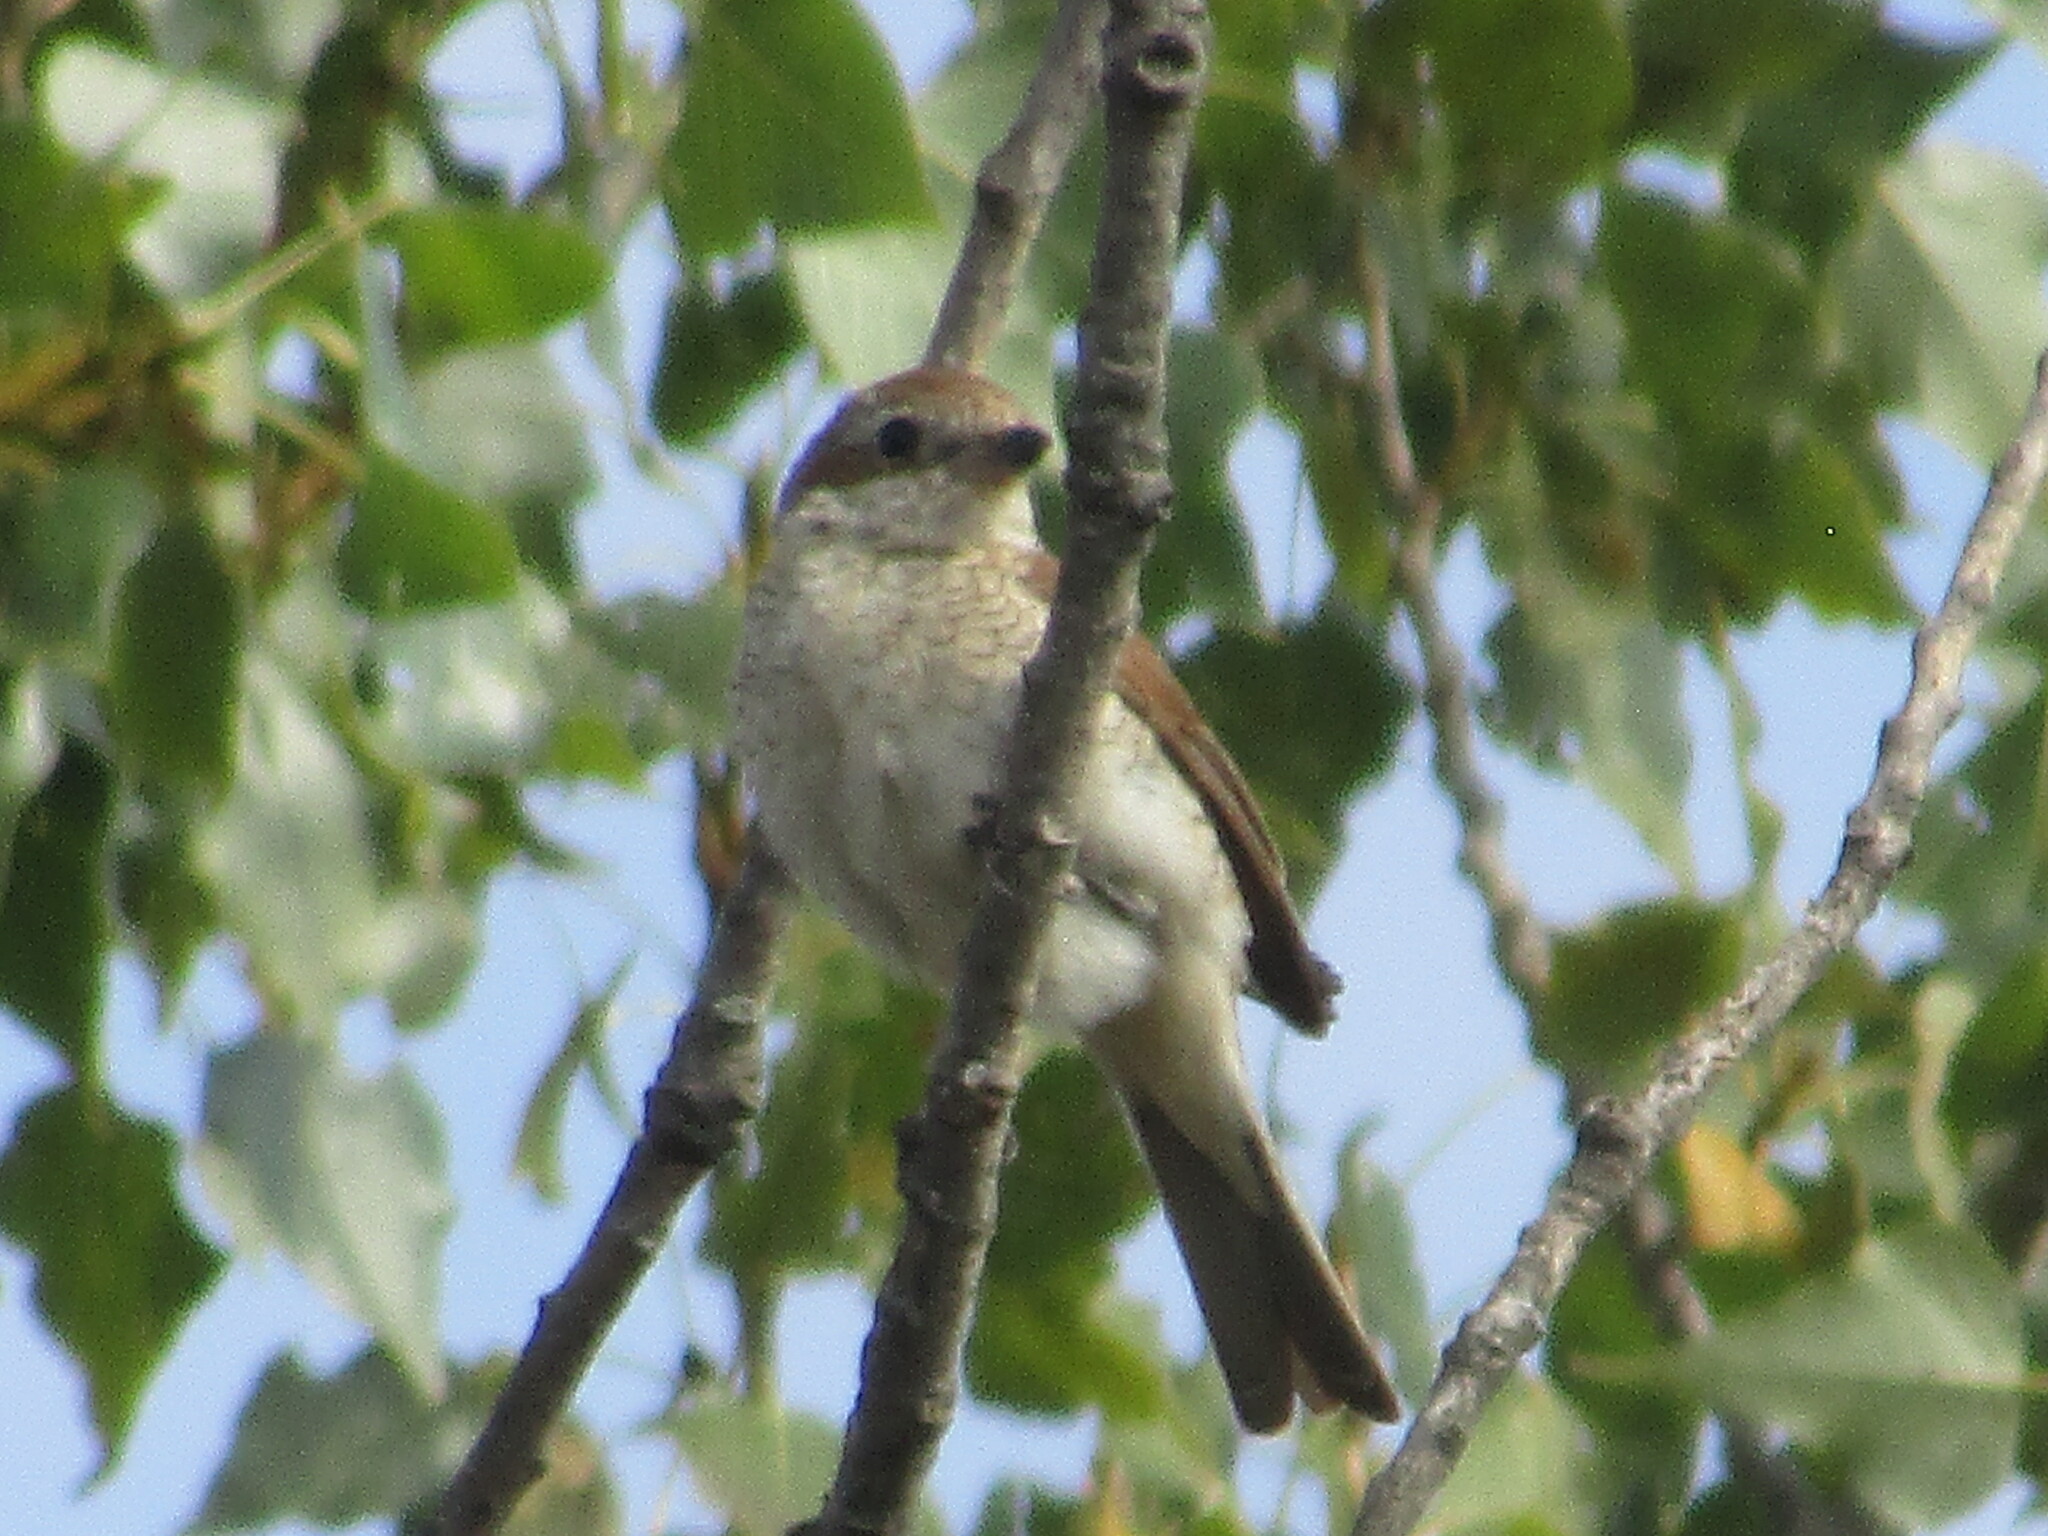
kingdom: Animalia
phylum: Chordata
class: Aves
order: Passeriformes
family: Laniidae
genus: Lanius
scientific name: Lanius collurio
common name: Red-backed shrike
